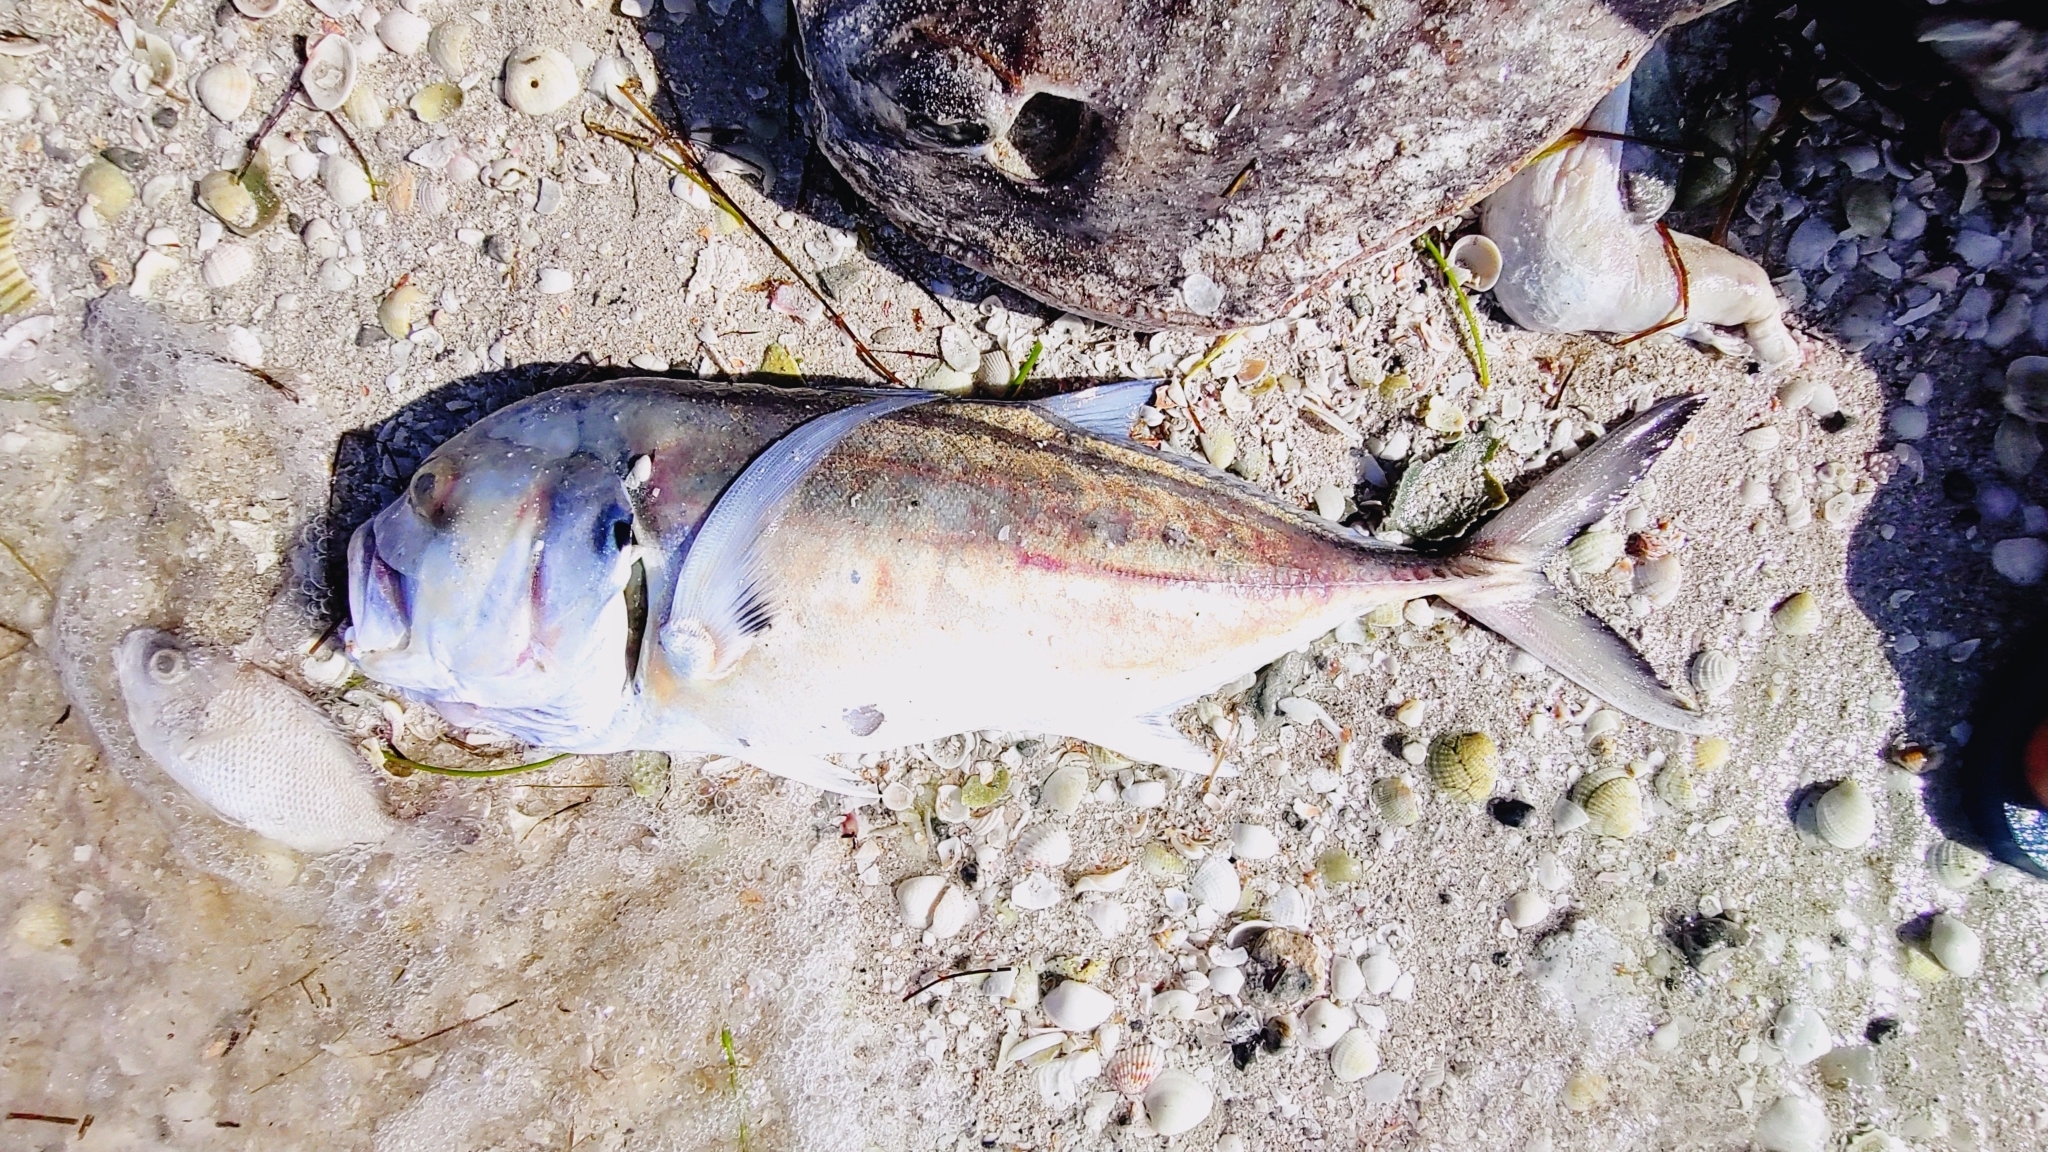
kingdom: Animalia
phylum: Chordata
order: Perciformes
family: Carangidae
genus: Caranx
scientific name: Caranx hippos
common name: Common jack
